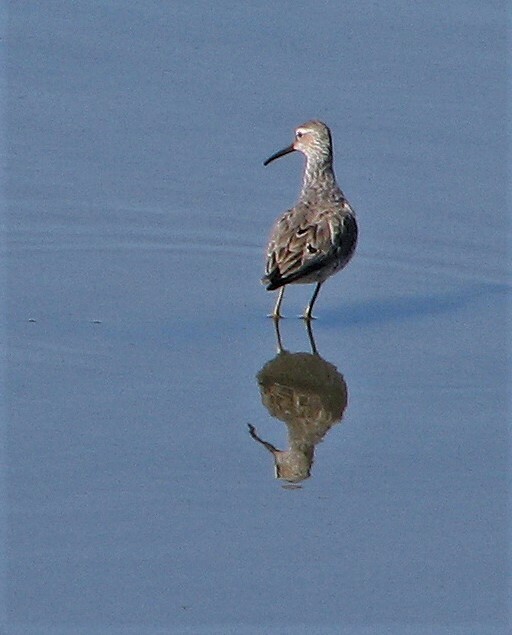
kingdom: Animalia
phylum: Chordata
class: Aves
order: Charadriiformes
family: Scolopacidae
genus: Calidris
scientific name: Calidris himantopus
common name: Stilt sandpiper
